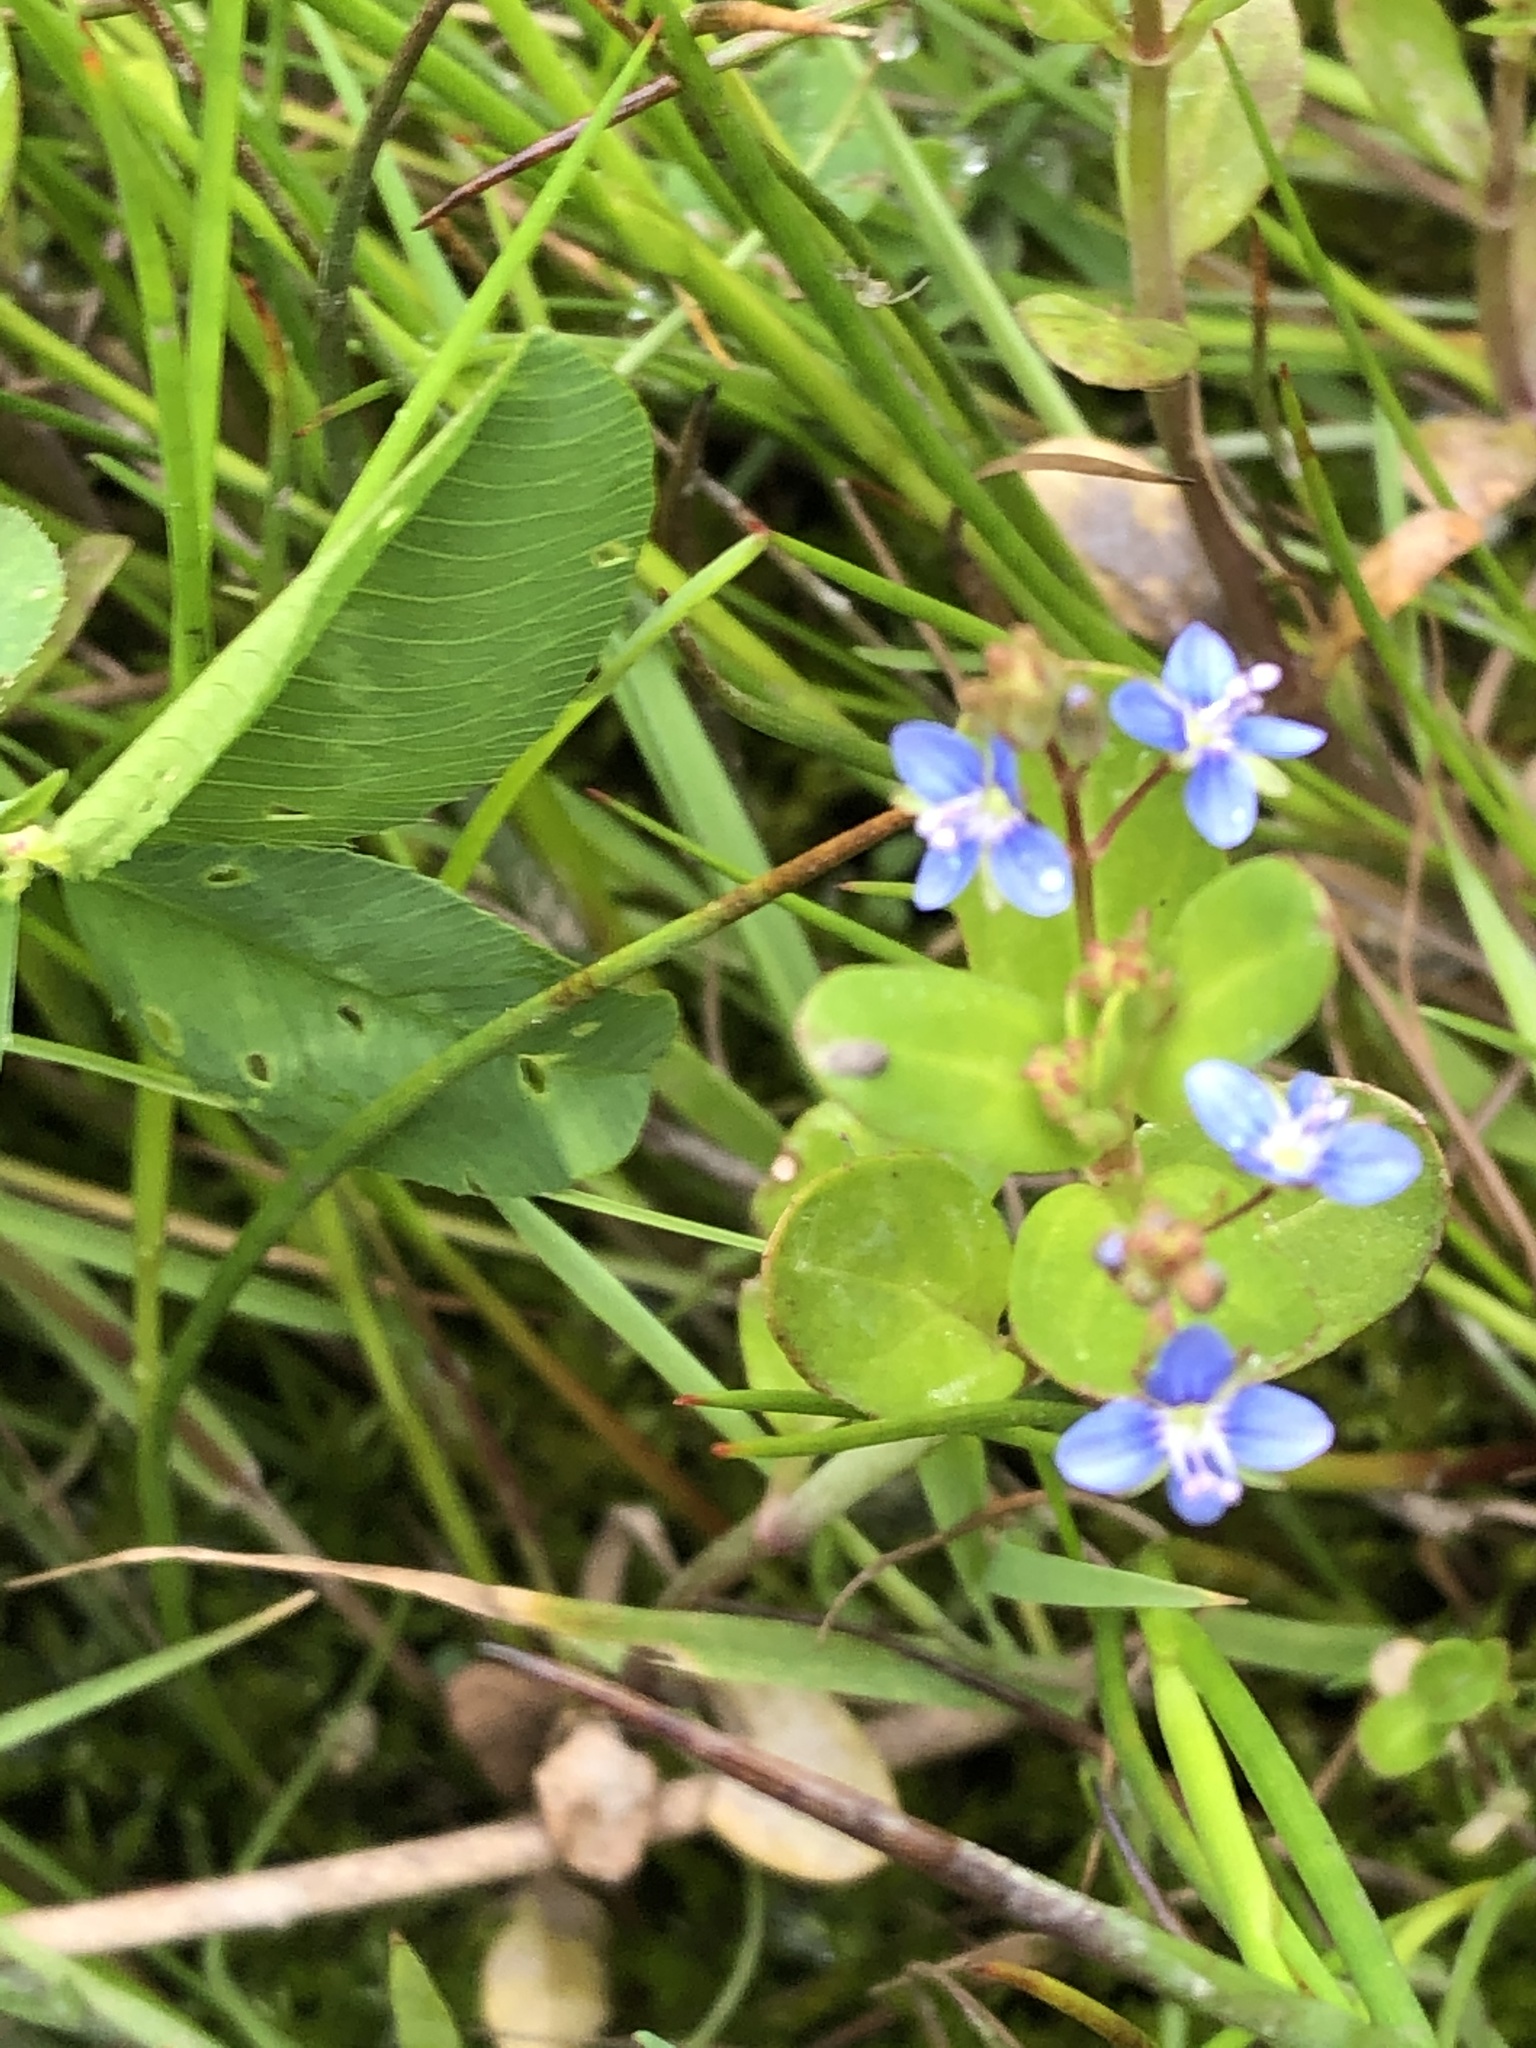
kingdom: Plantae
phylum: Tracheophyta
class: Magnoliopsida
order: Lamiales
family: Plantaginaceae
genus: Veronica
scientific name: Veronica beccabunga
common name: Brooklime
